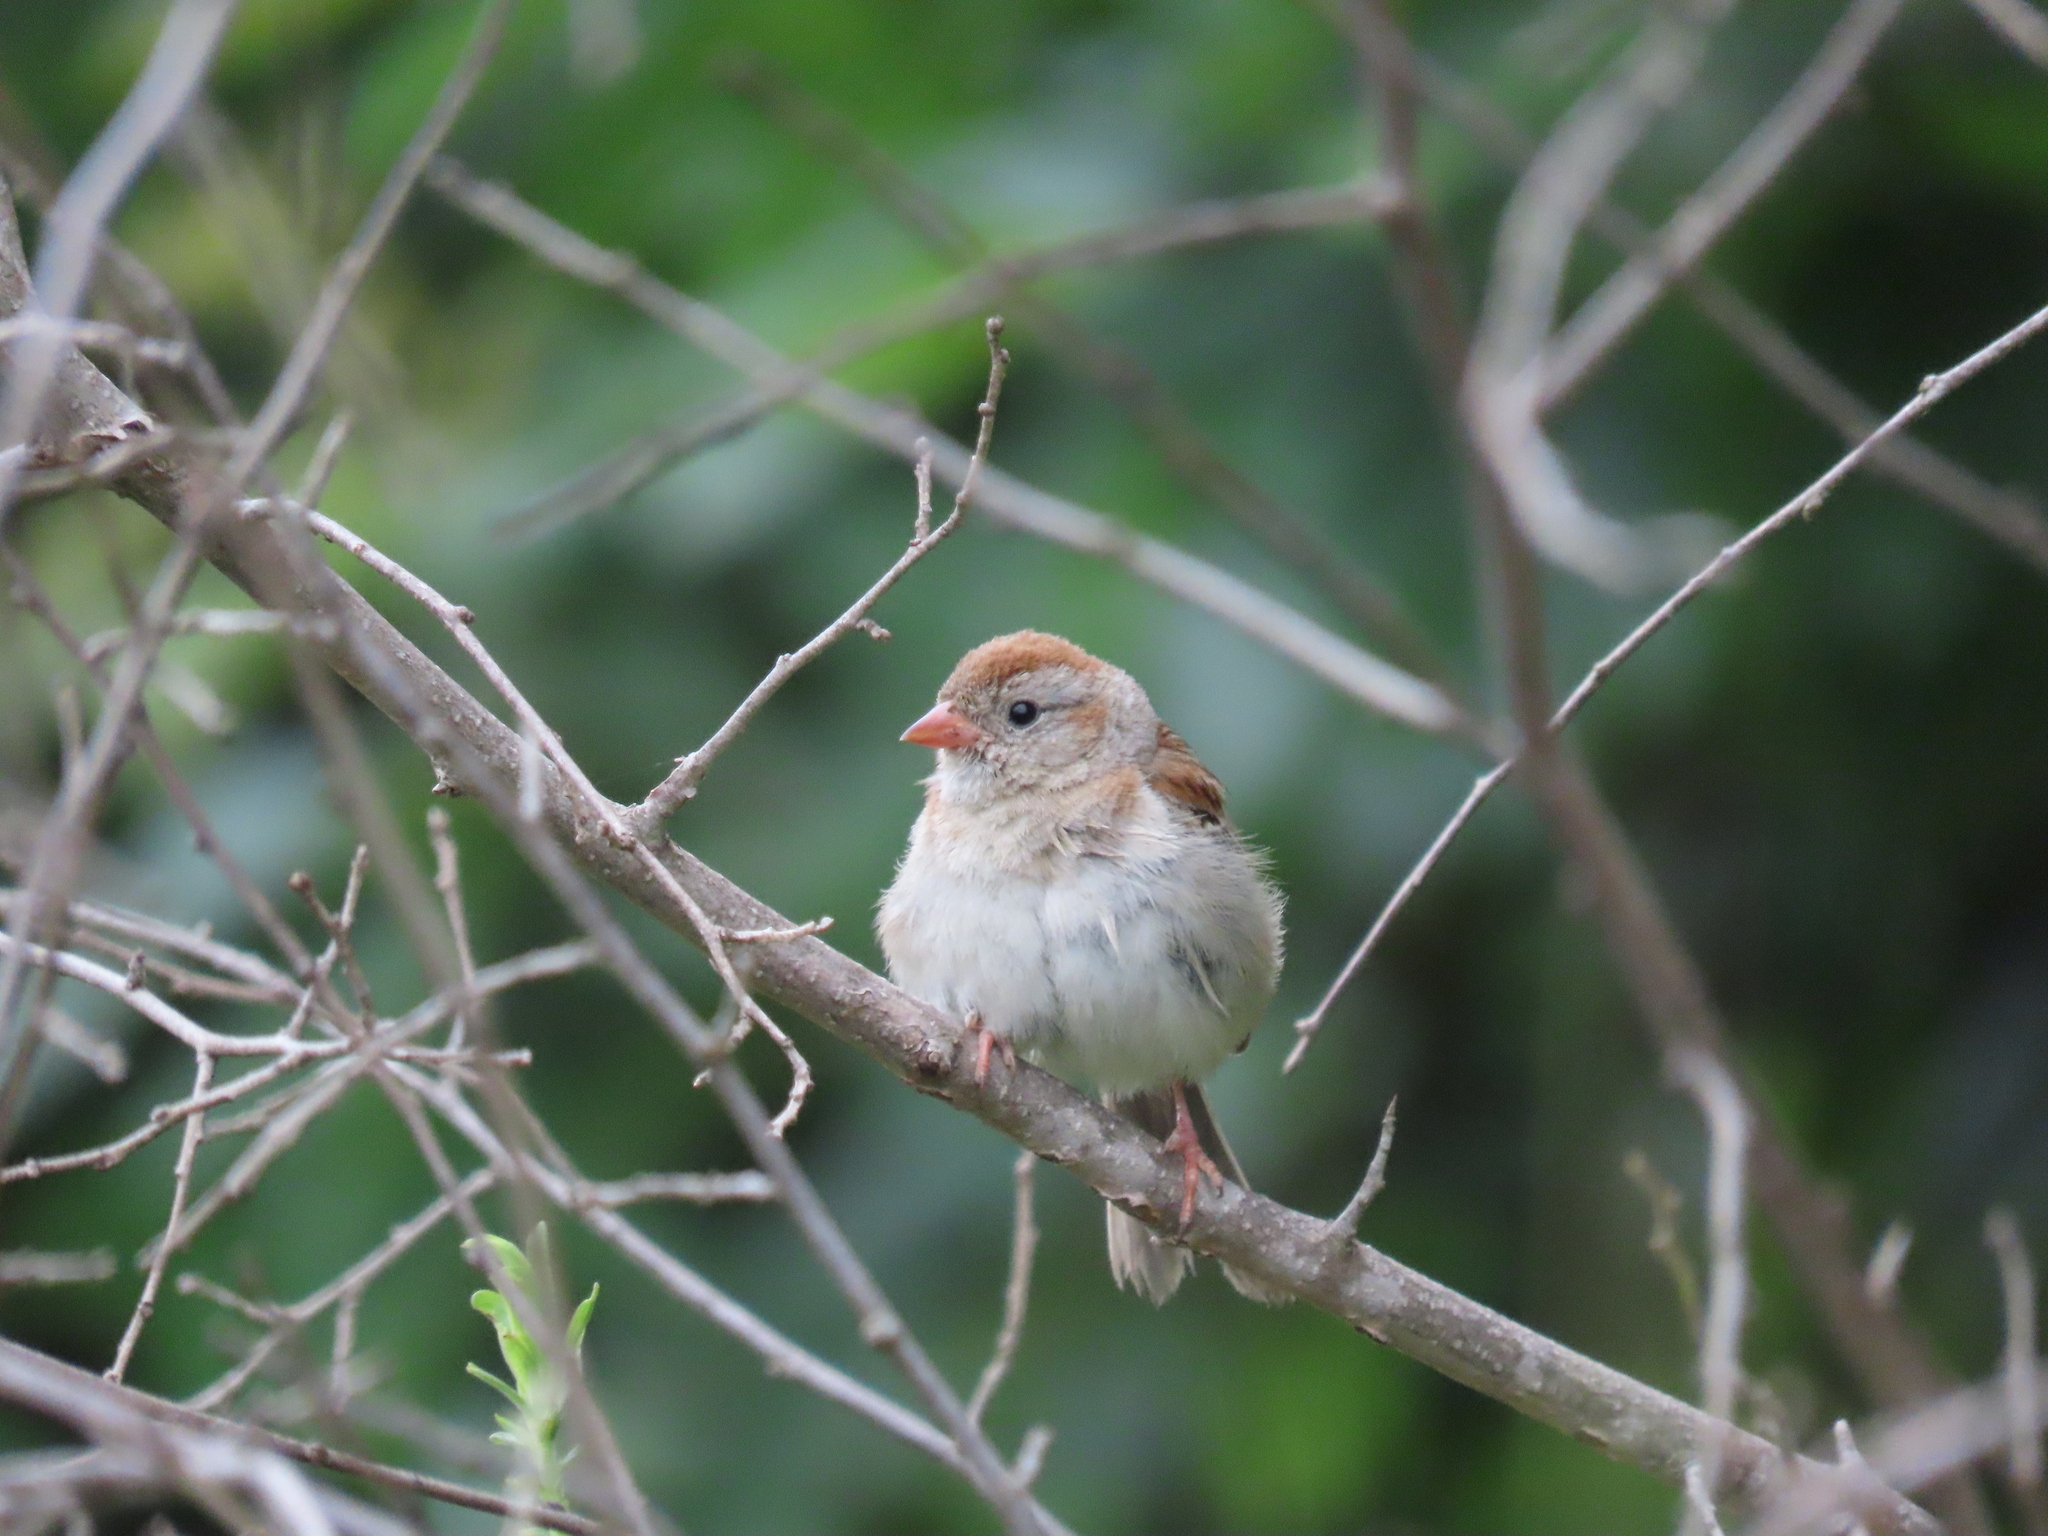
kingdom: Animalia
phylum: Chordata
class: Aves
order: Passeriformes
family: Passerellidae
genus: Spizella
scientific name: Spizella pusilla
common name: Field sparrow
